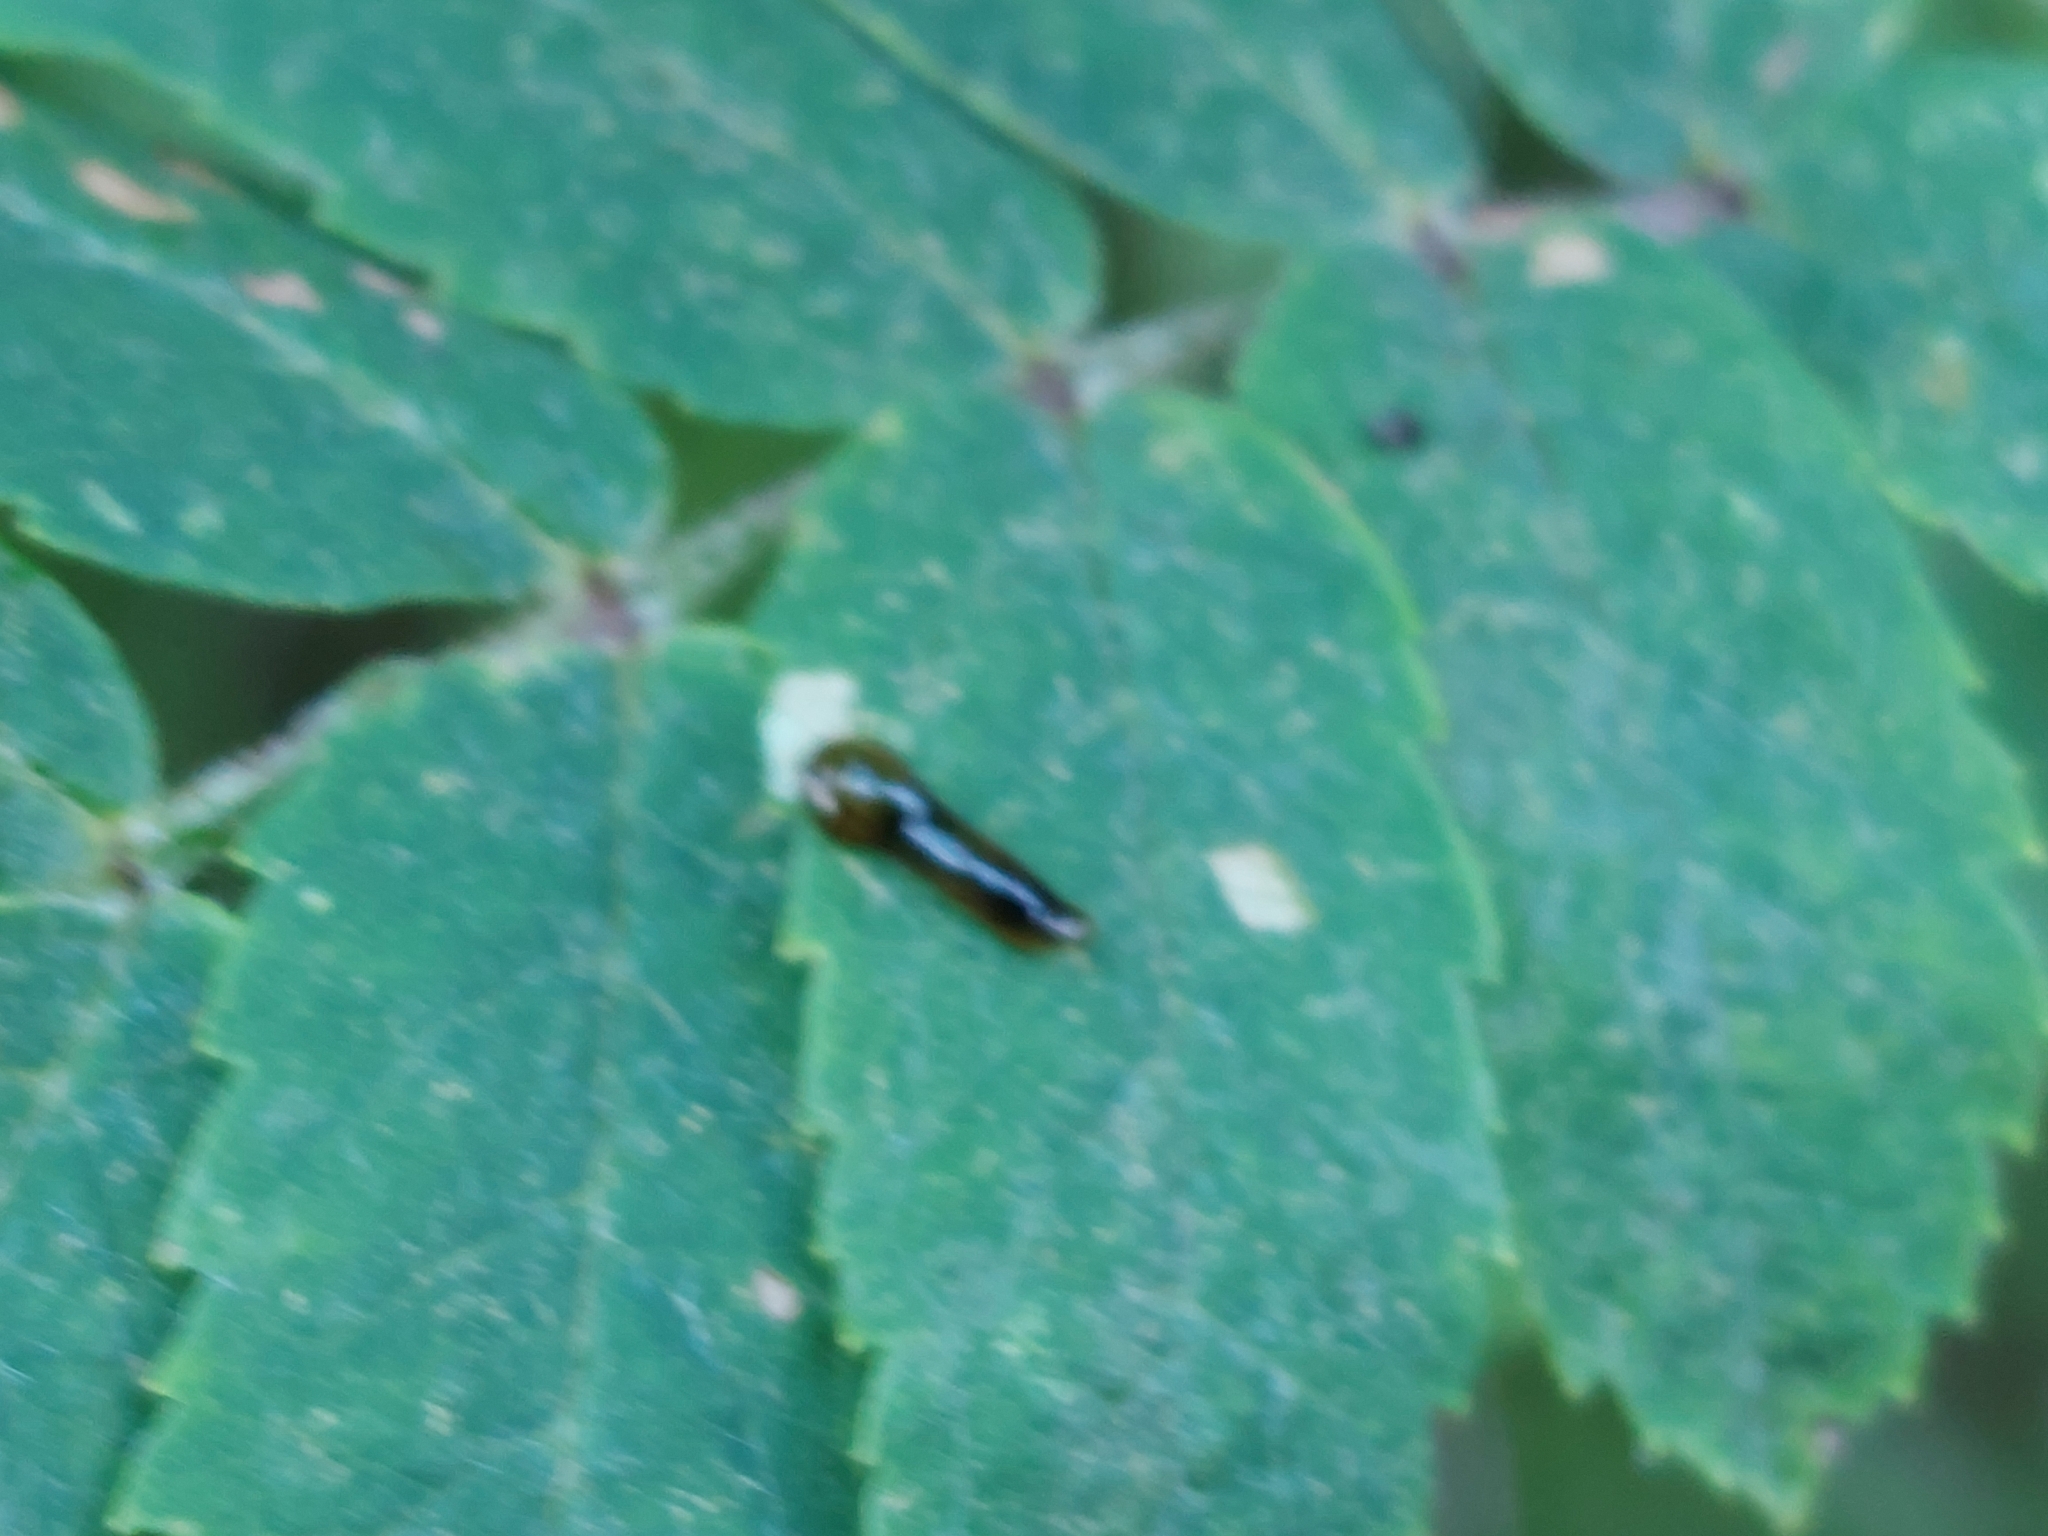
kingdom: Animalia
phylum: Arthropoda
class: Insecta
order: Hymenoptera
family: Tenthredinidae
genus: Caliroa
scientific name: Caliroa cerasi
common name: Pear sawfly
